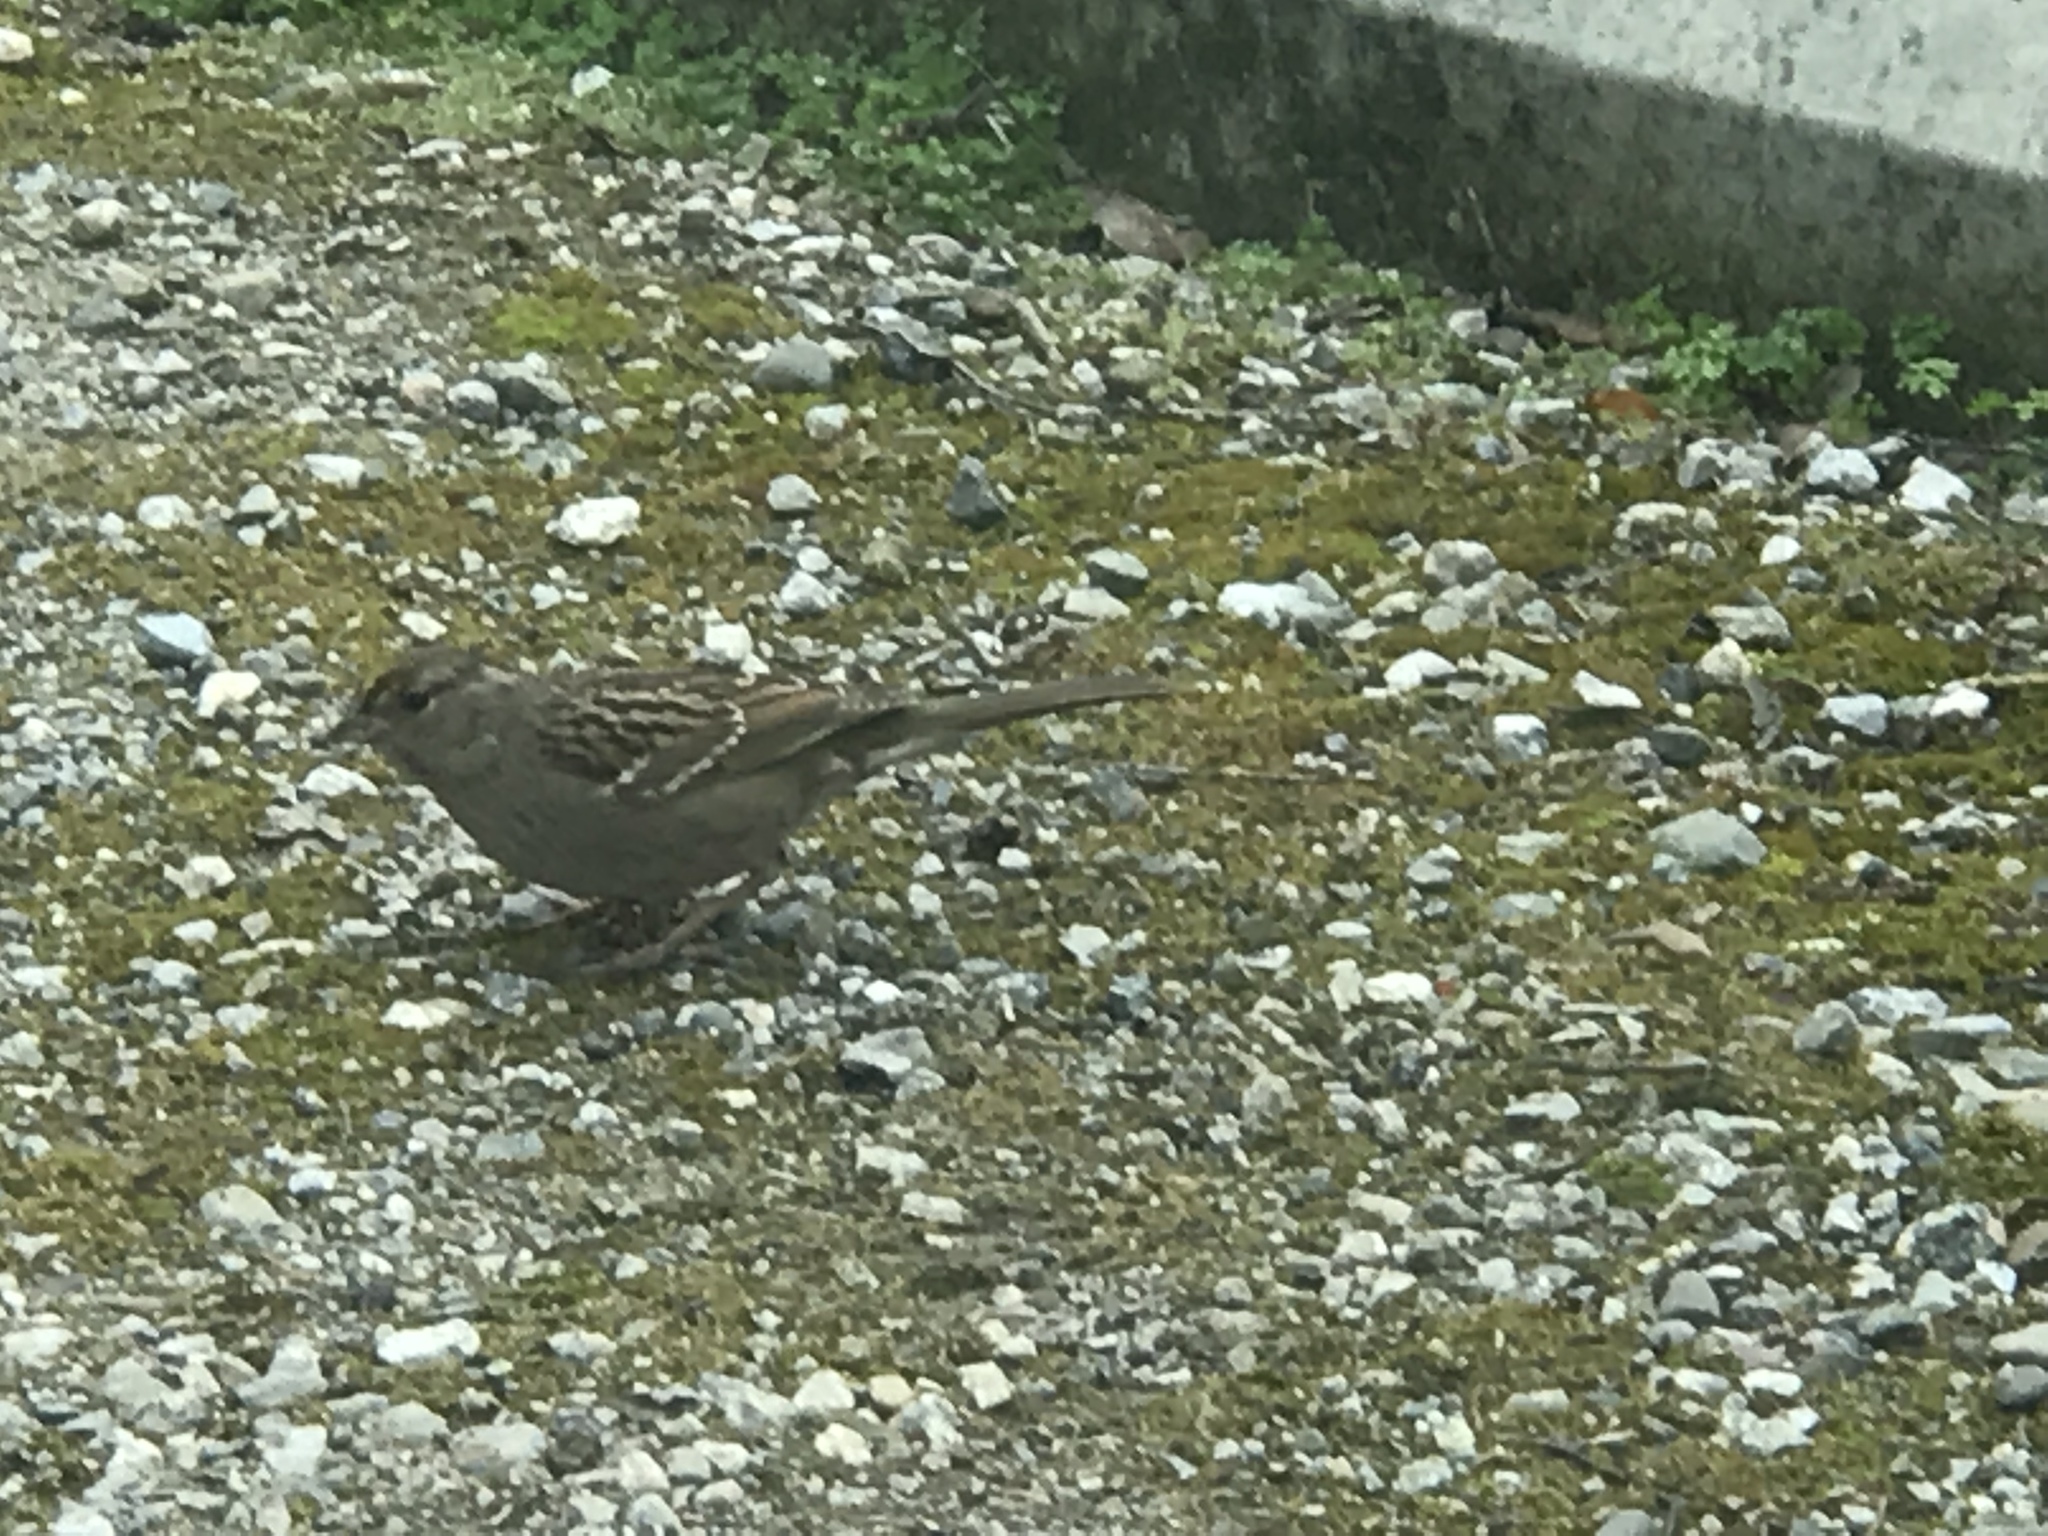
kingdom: Animalia
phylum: Chordata
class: Aves
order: Passeriformes
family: Passerellidae
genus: Zonotrichia
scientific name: Zonotrichia atricapilla
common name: Golden-crowned sparrow
